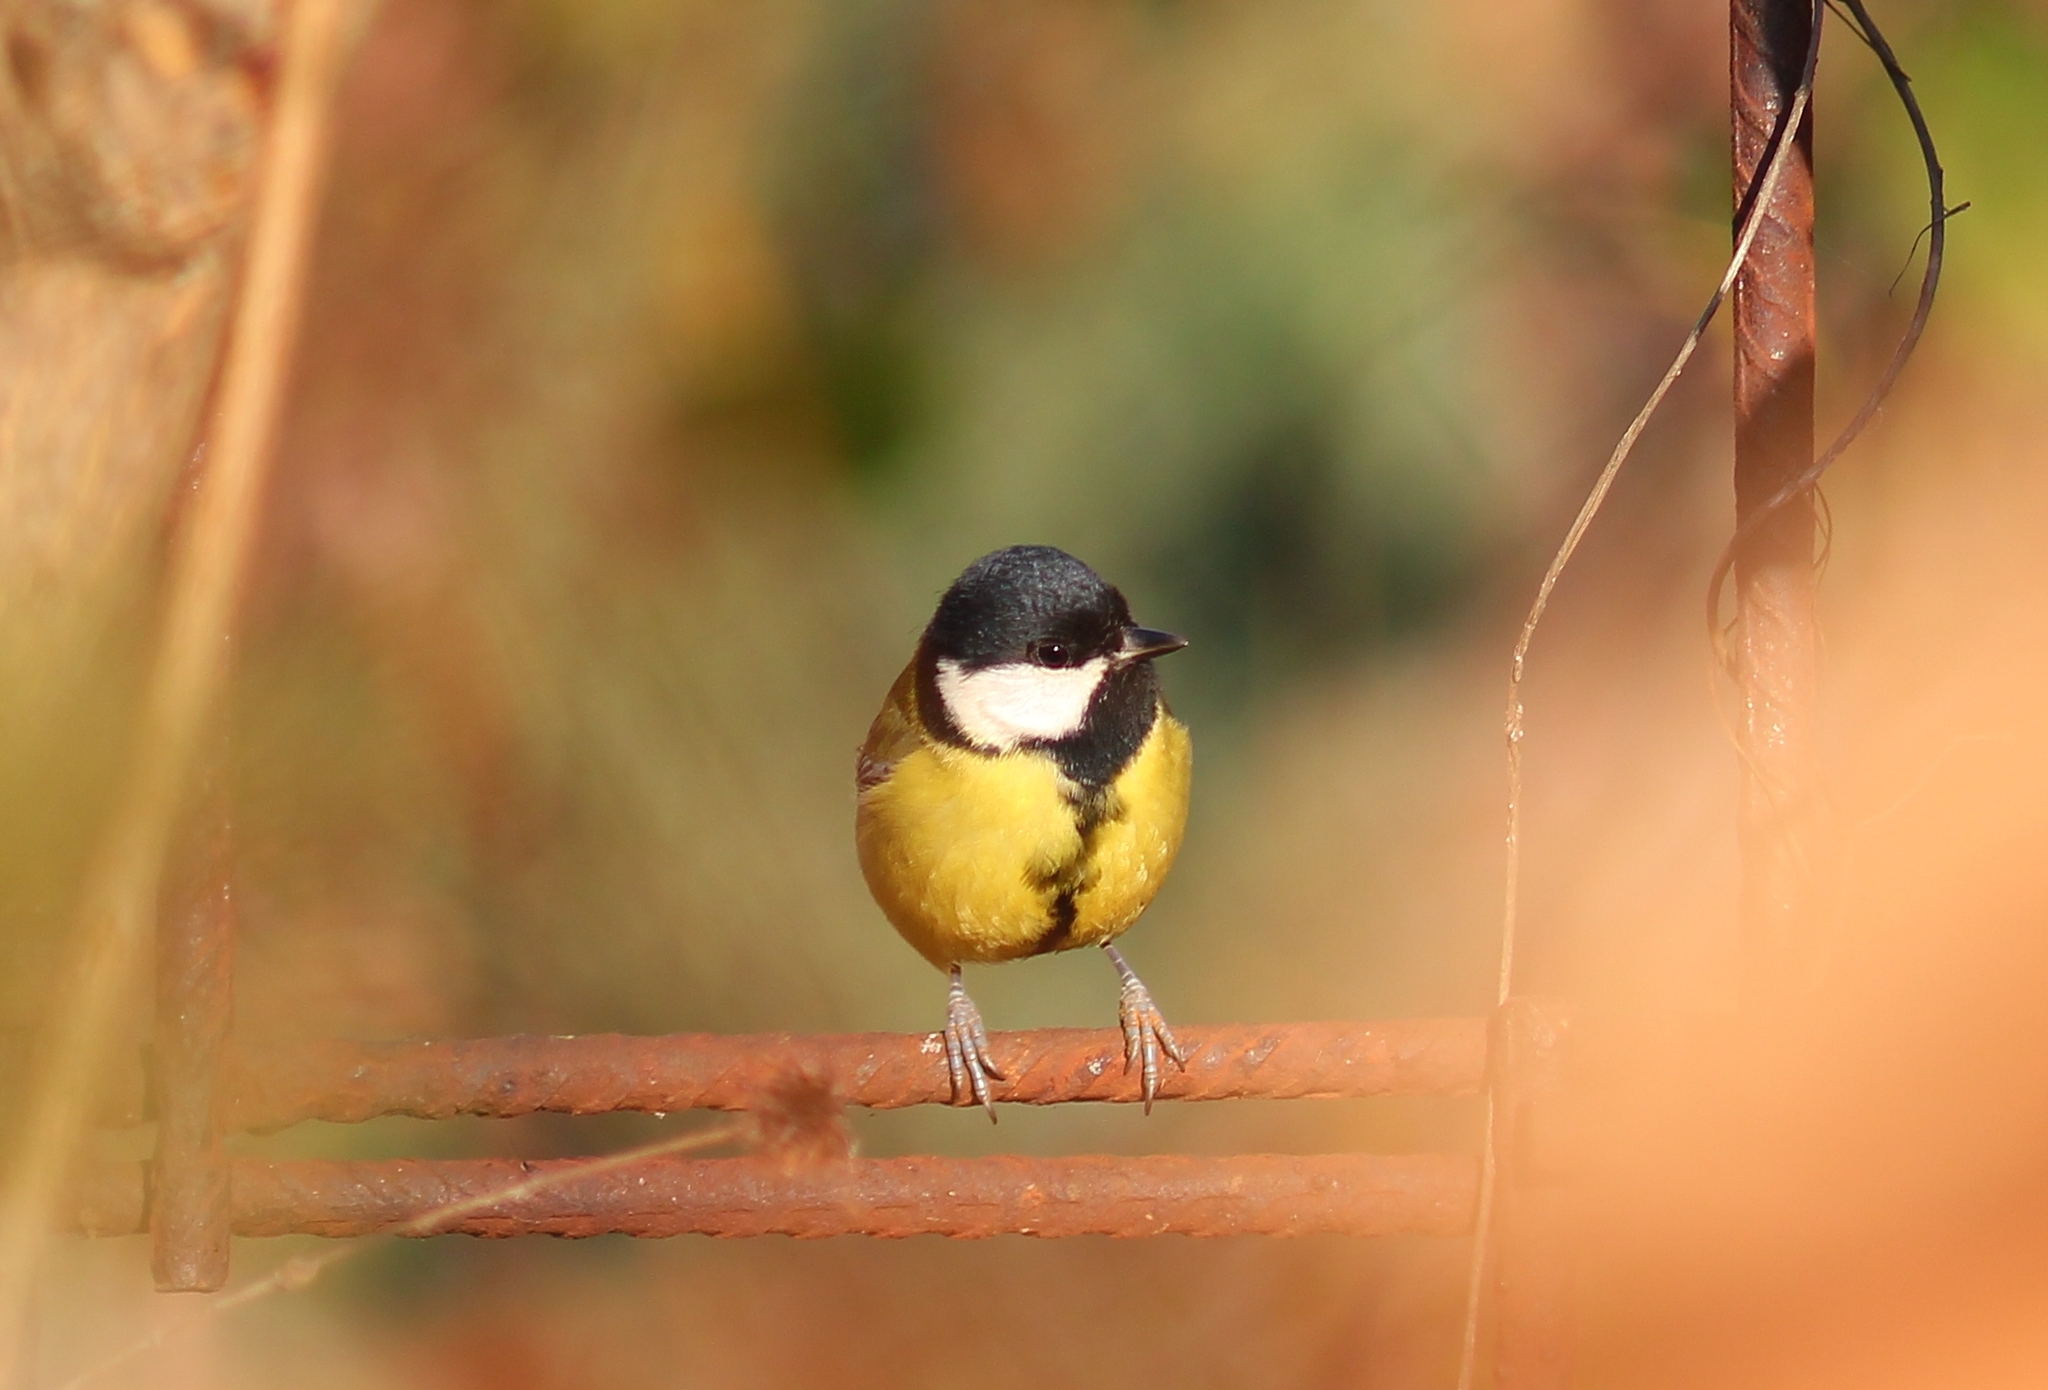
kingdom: Animalia
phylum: Chordata
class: Aves
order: Passeriformes
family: Paridae
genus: Parus
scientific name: Parus major
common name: Great tit
